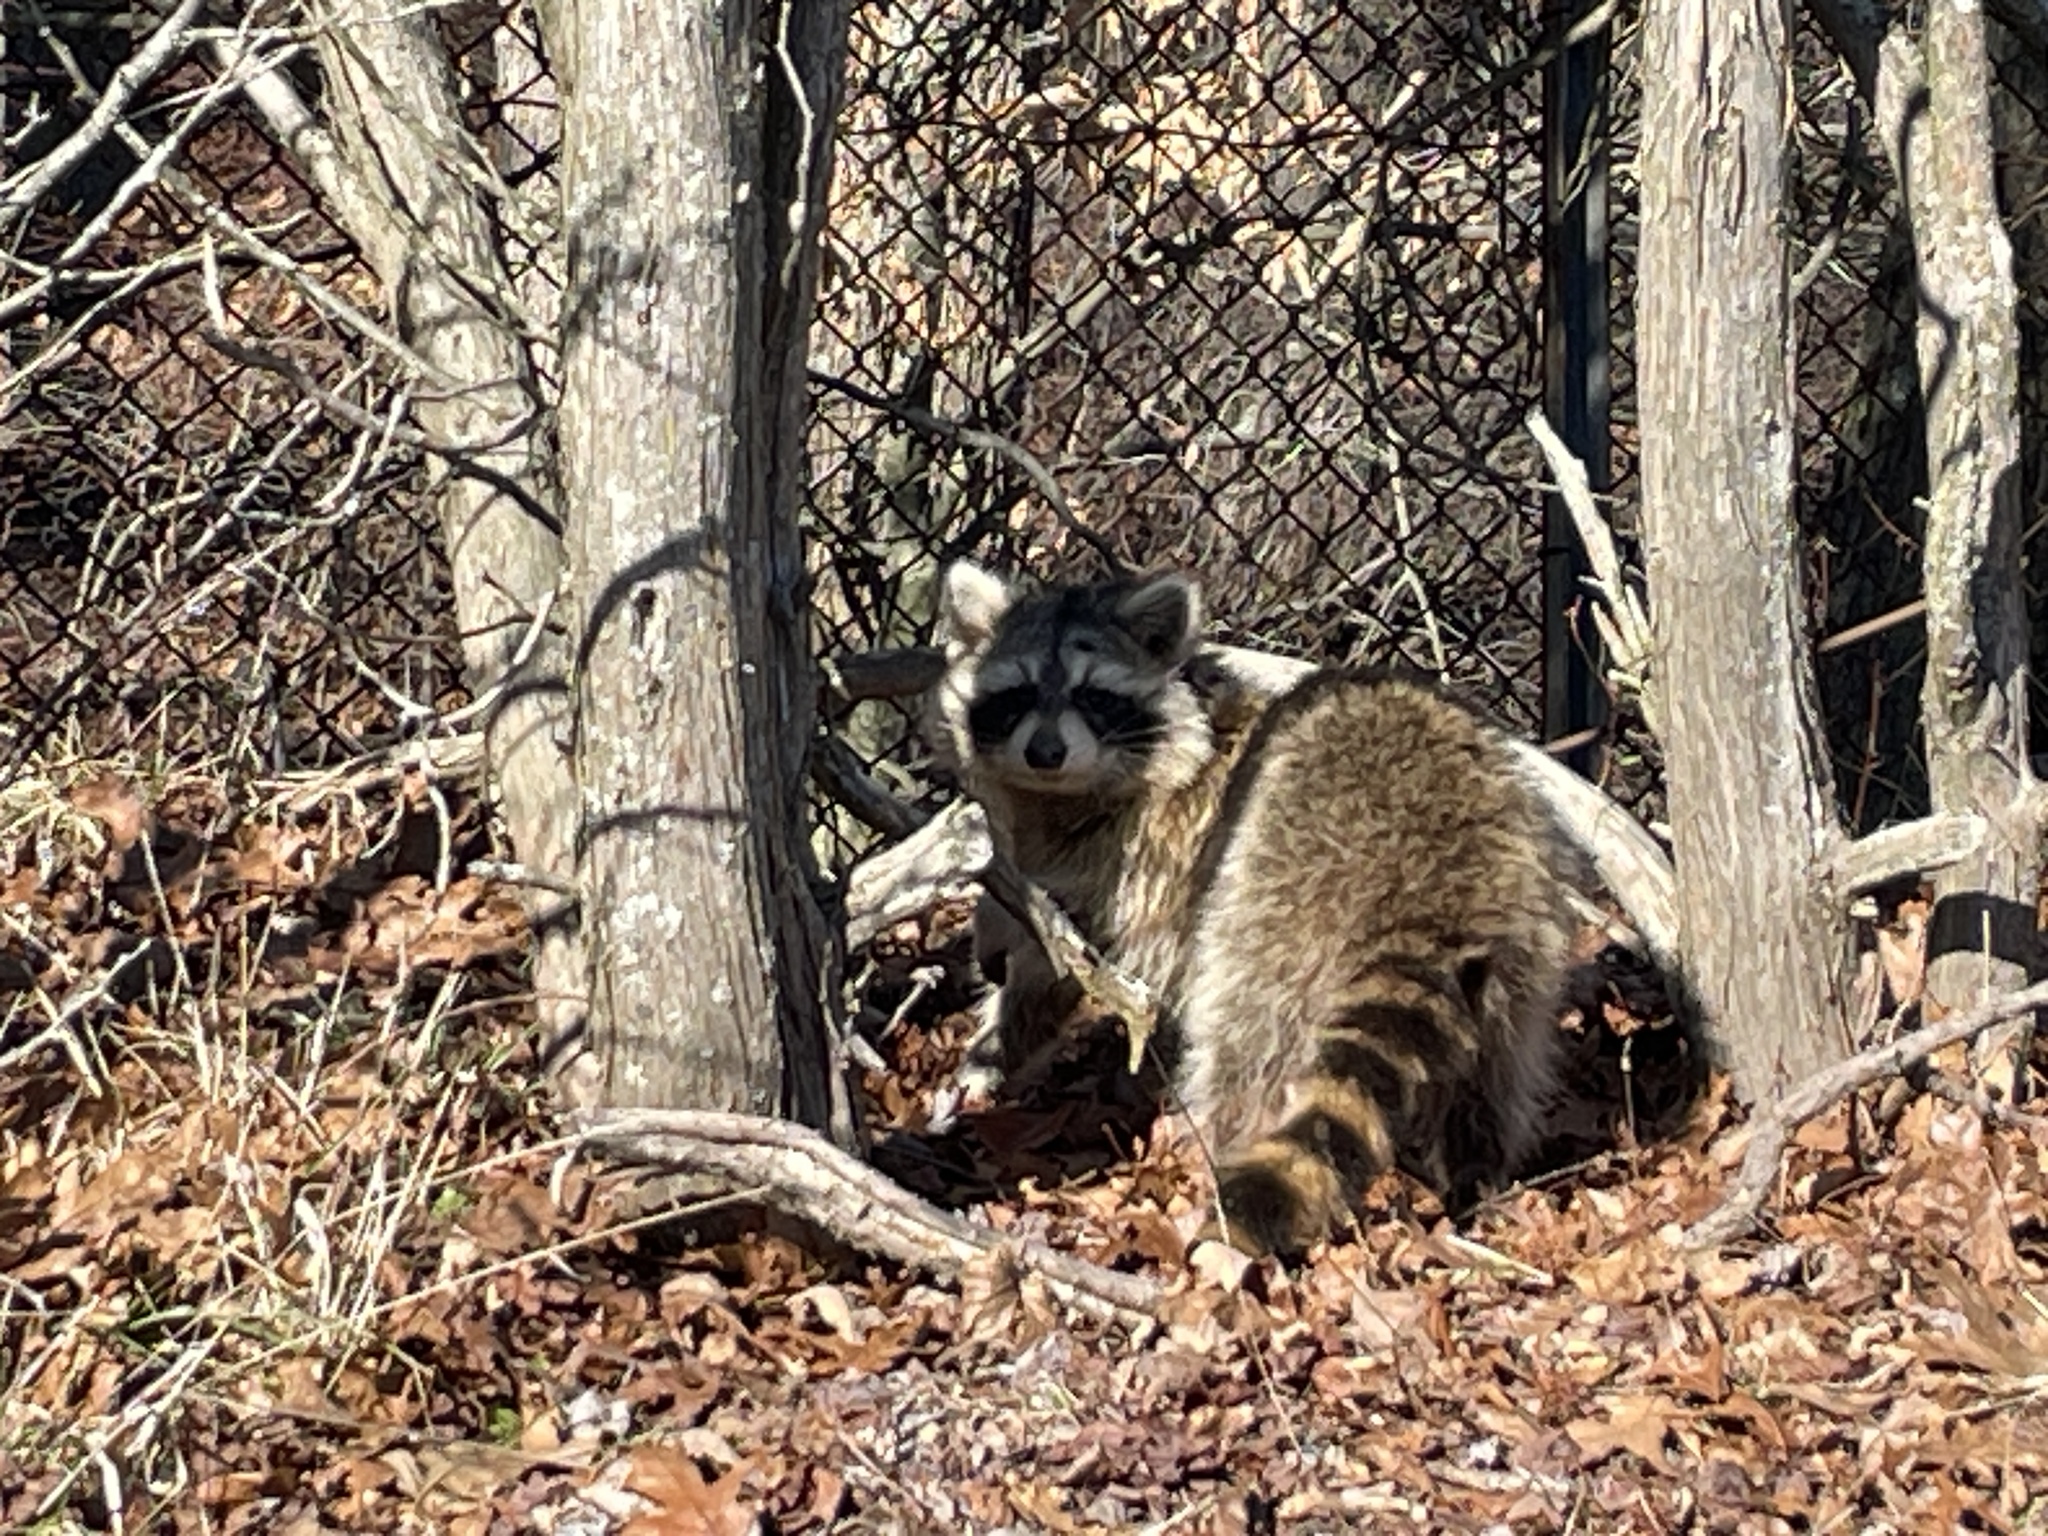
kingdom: Animalia
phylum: Chordata
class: Mammalia
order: Carnivora
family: Procyonidae
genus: Procyon
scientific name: Procyon lotor
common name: Raccoon
